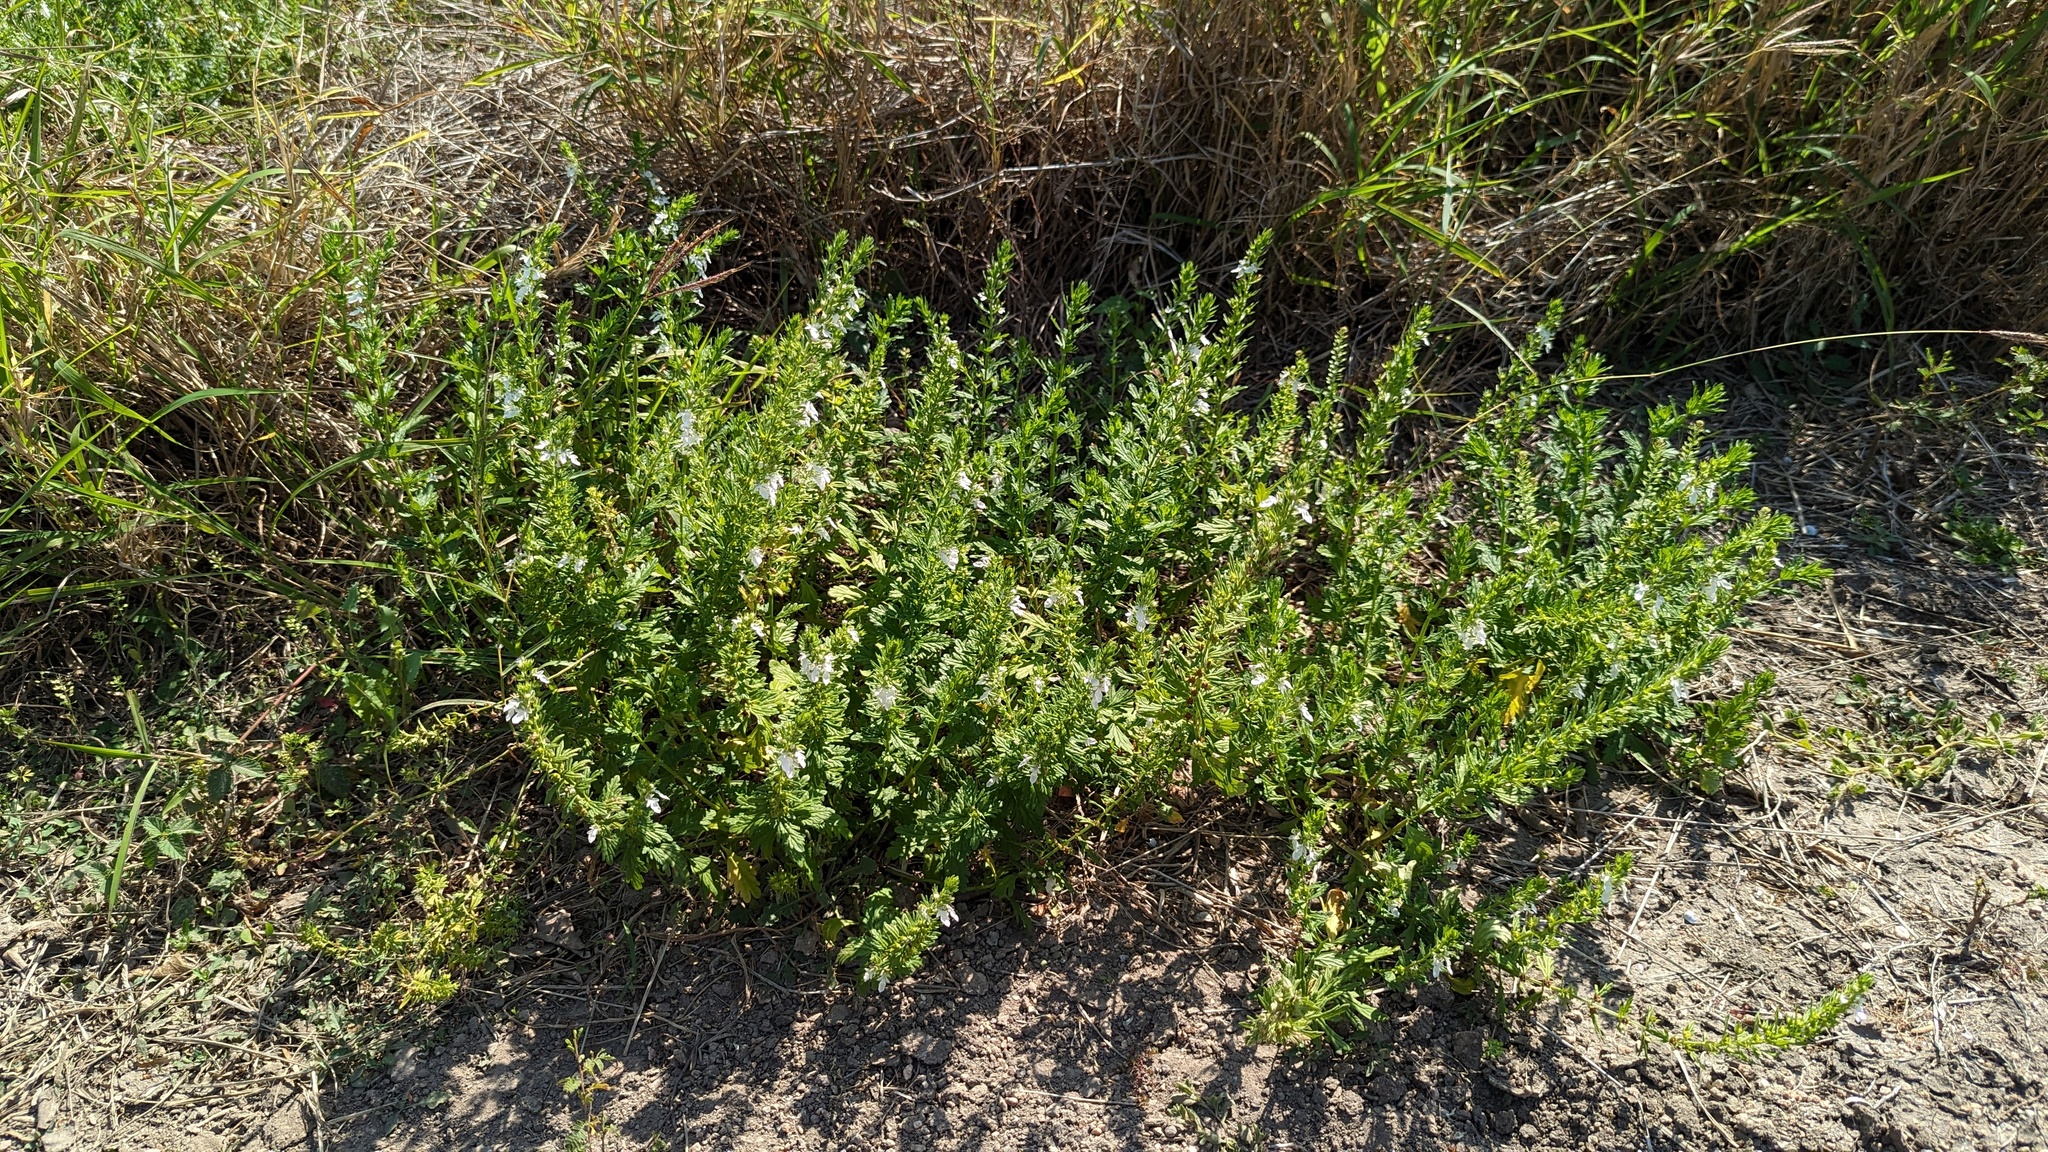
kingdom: Plantae
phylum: Tracheophyta
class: Magnoliopsida
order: Lamiales
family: Lamiaceae
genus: Teucrium
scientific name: Teucrium cubense
